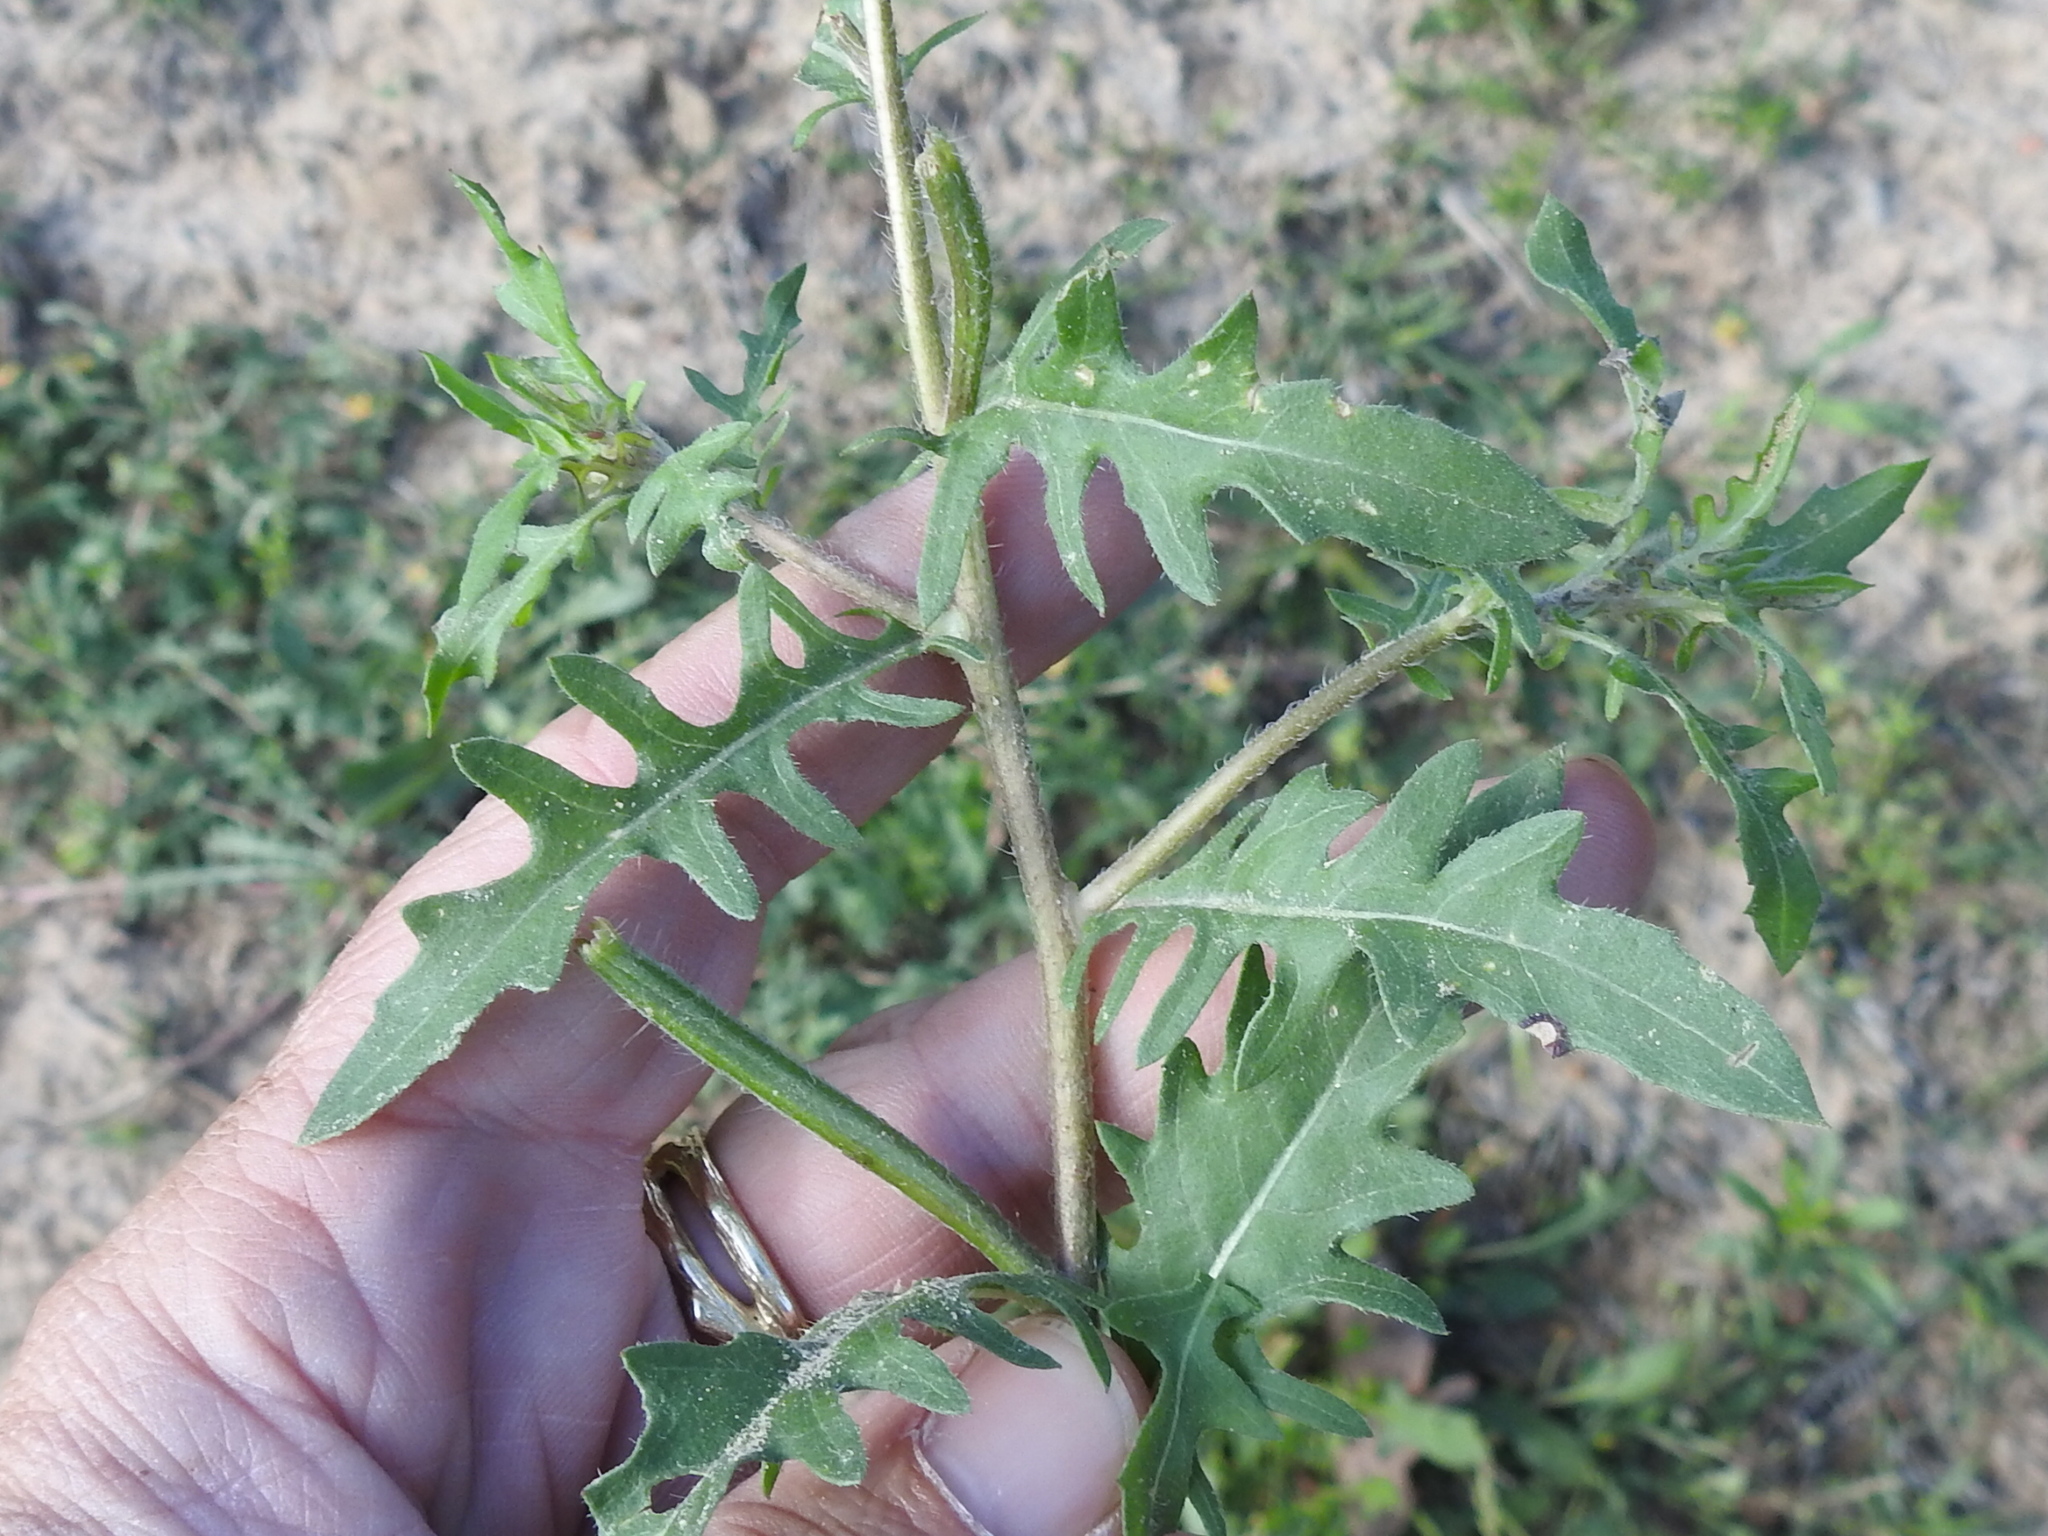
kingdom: Plantae
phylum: Tracheophyta
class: Magnoliopsida
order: Myrtales
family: Onagraceae
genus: Oenothera
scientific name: Oenothera laciniata
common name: Cut-leaved evening-primrose
